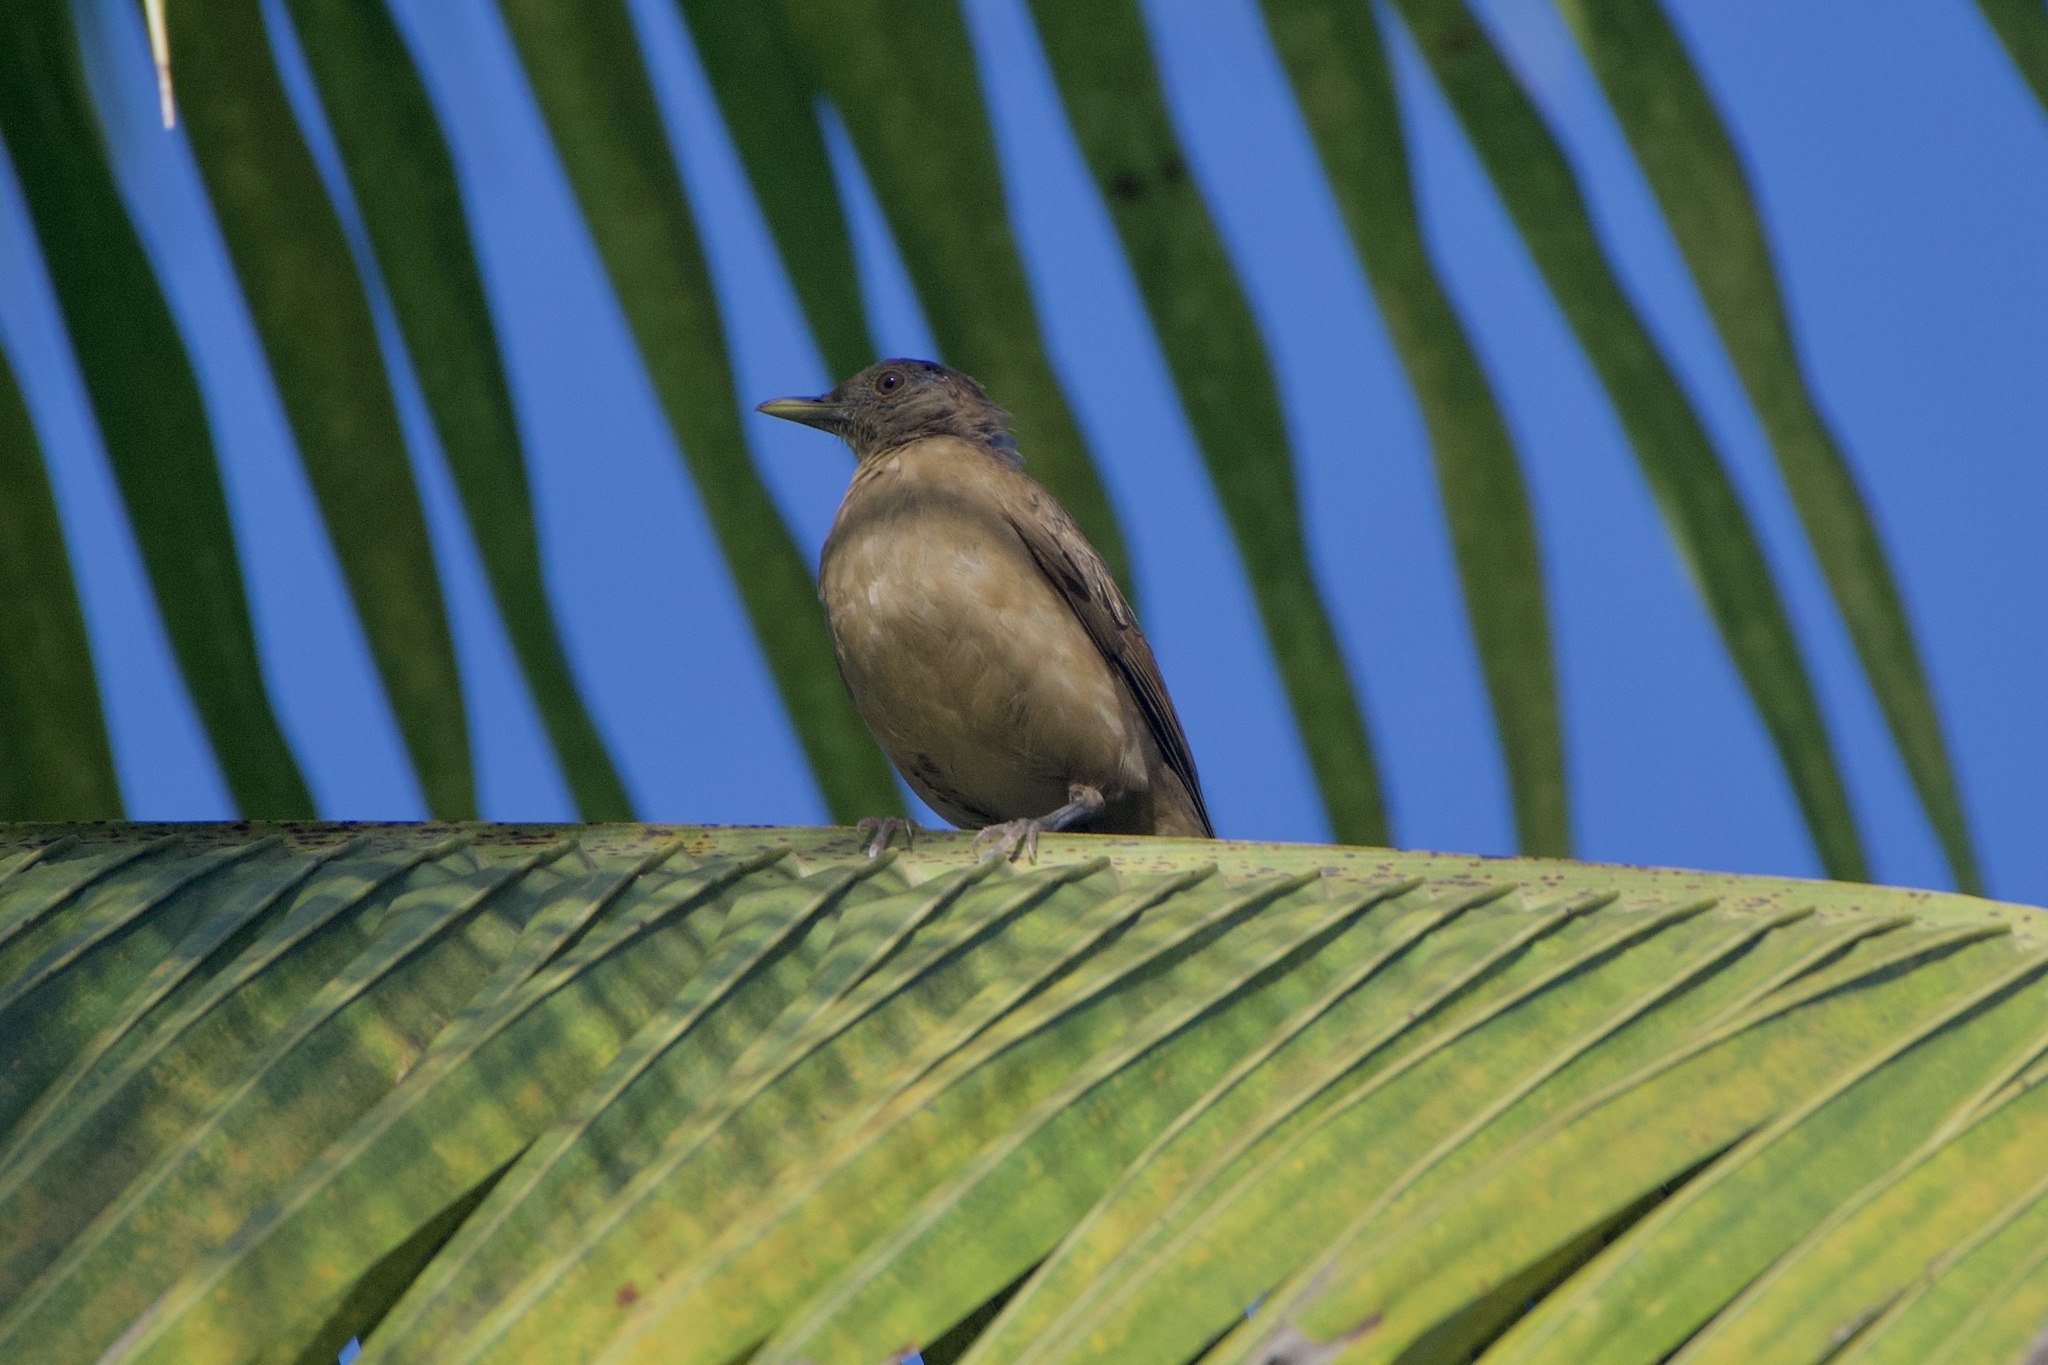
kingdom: Animalia
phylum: Chordata
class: Aves
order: Passeriformes
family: Turdidae
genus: Turdus
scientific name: Turdus grayi
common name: Clay-colored thrush
